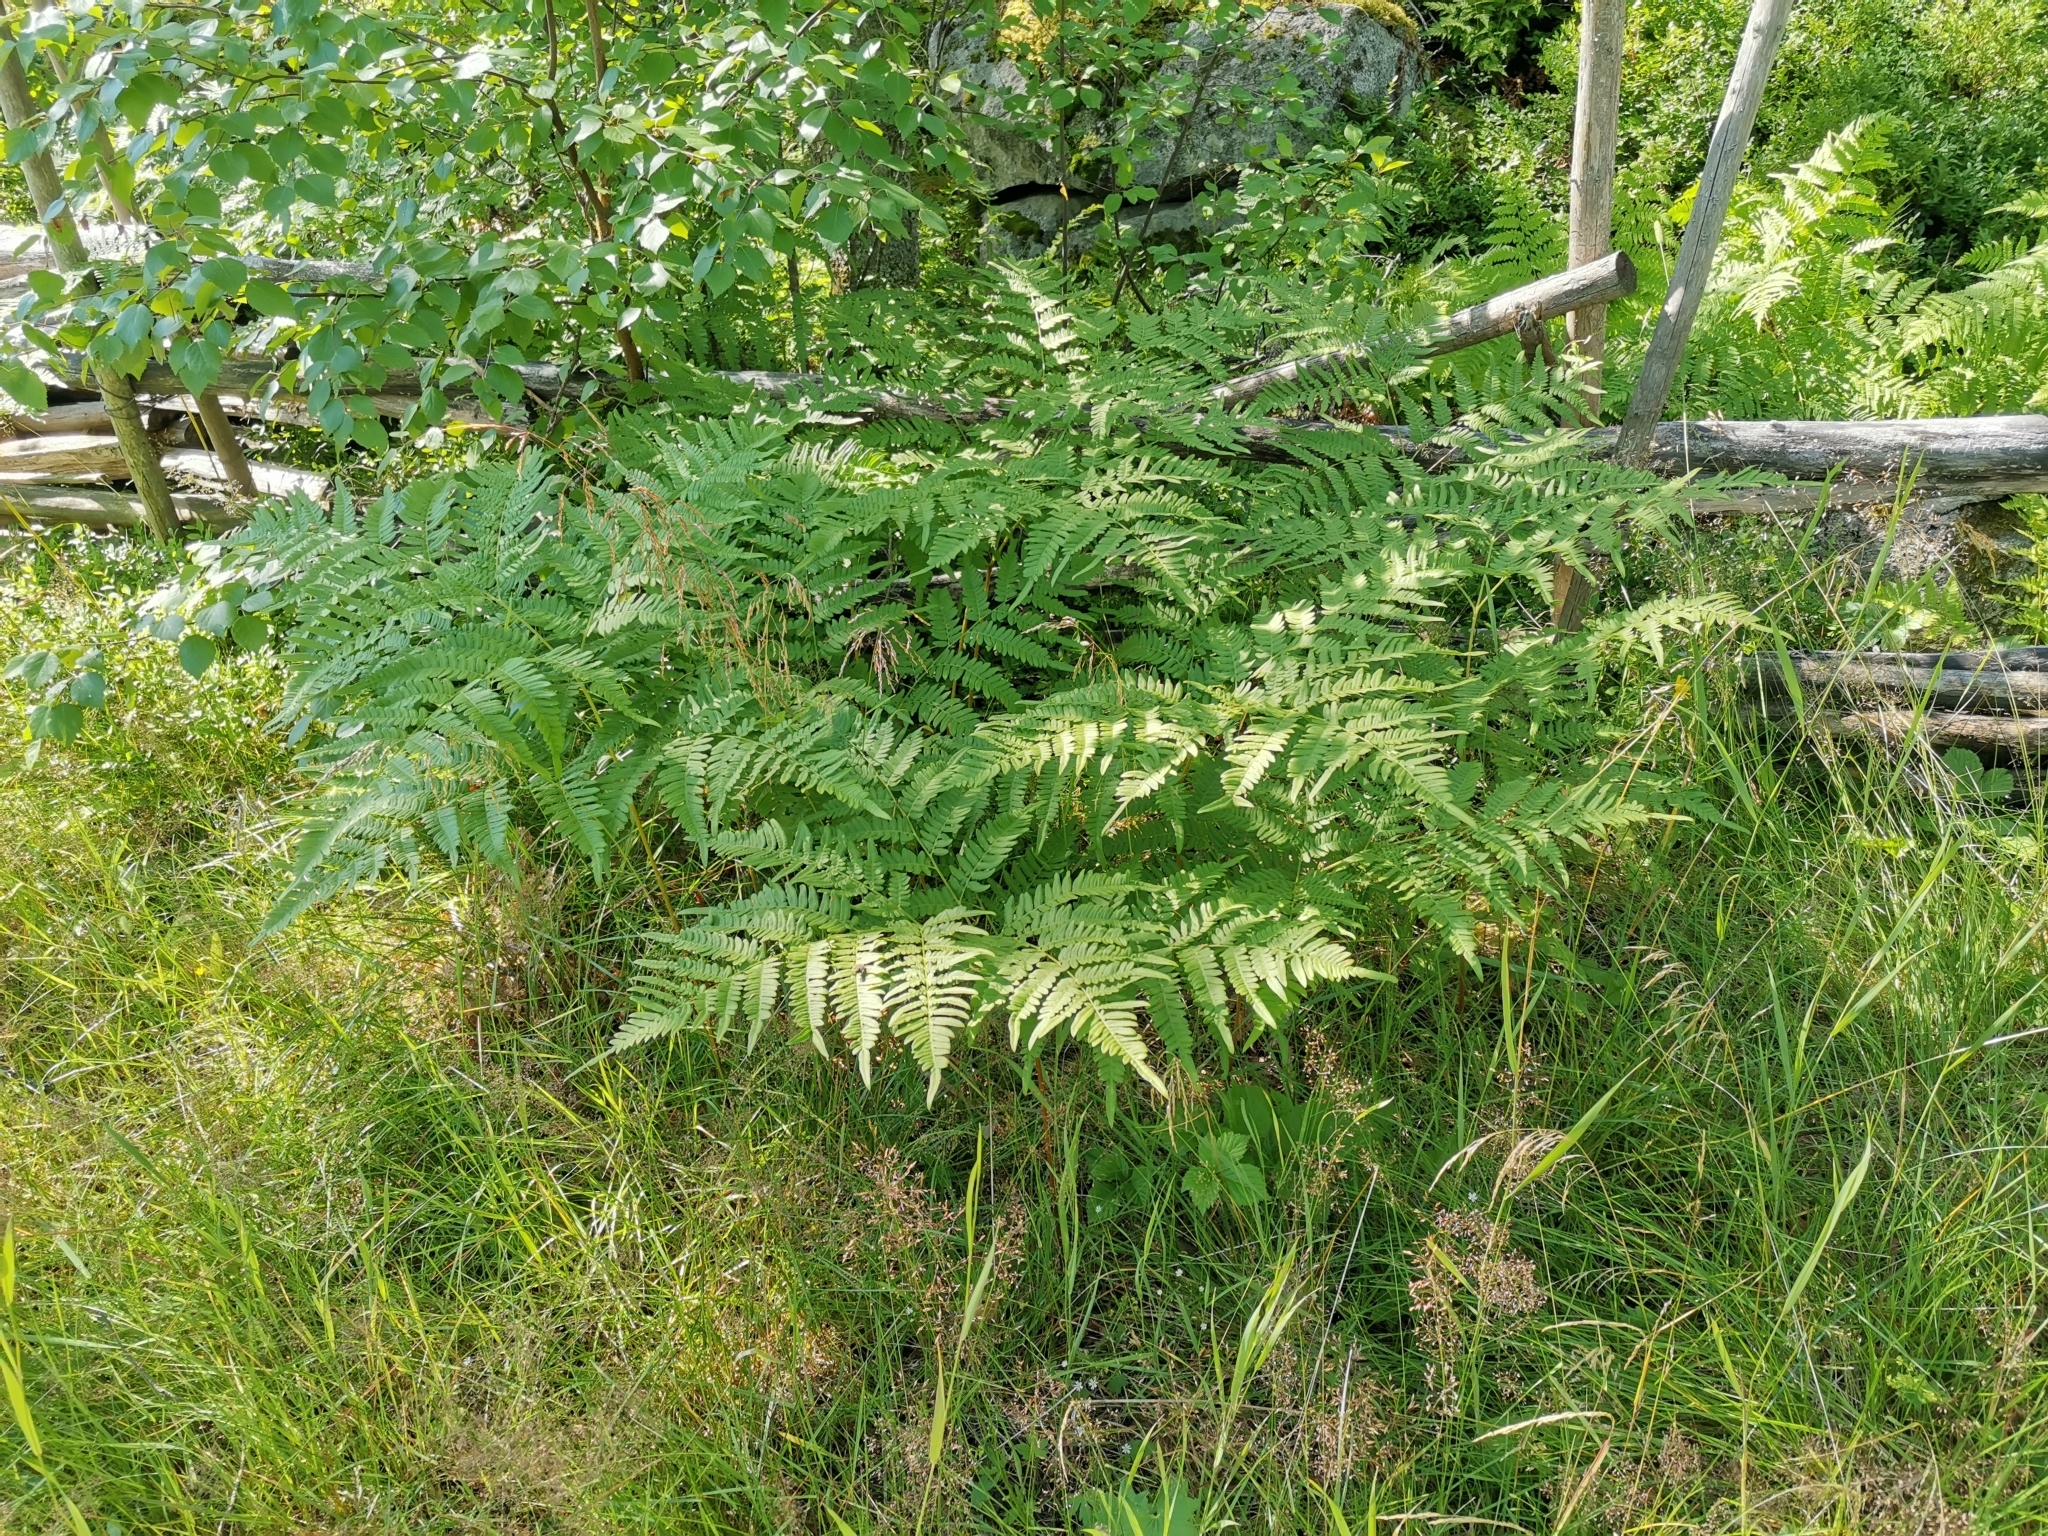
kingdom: Plantae
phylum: Tracheophyta
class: Polypodiopsida
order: Polypodiales
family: Dennstaedtiaceae
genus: Pteridium
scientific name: Pteridium aquilinum
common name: Bracken
